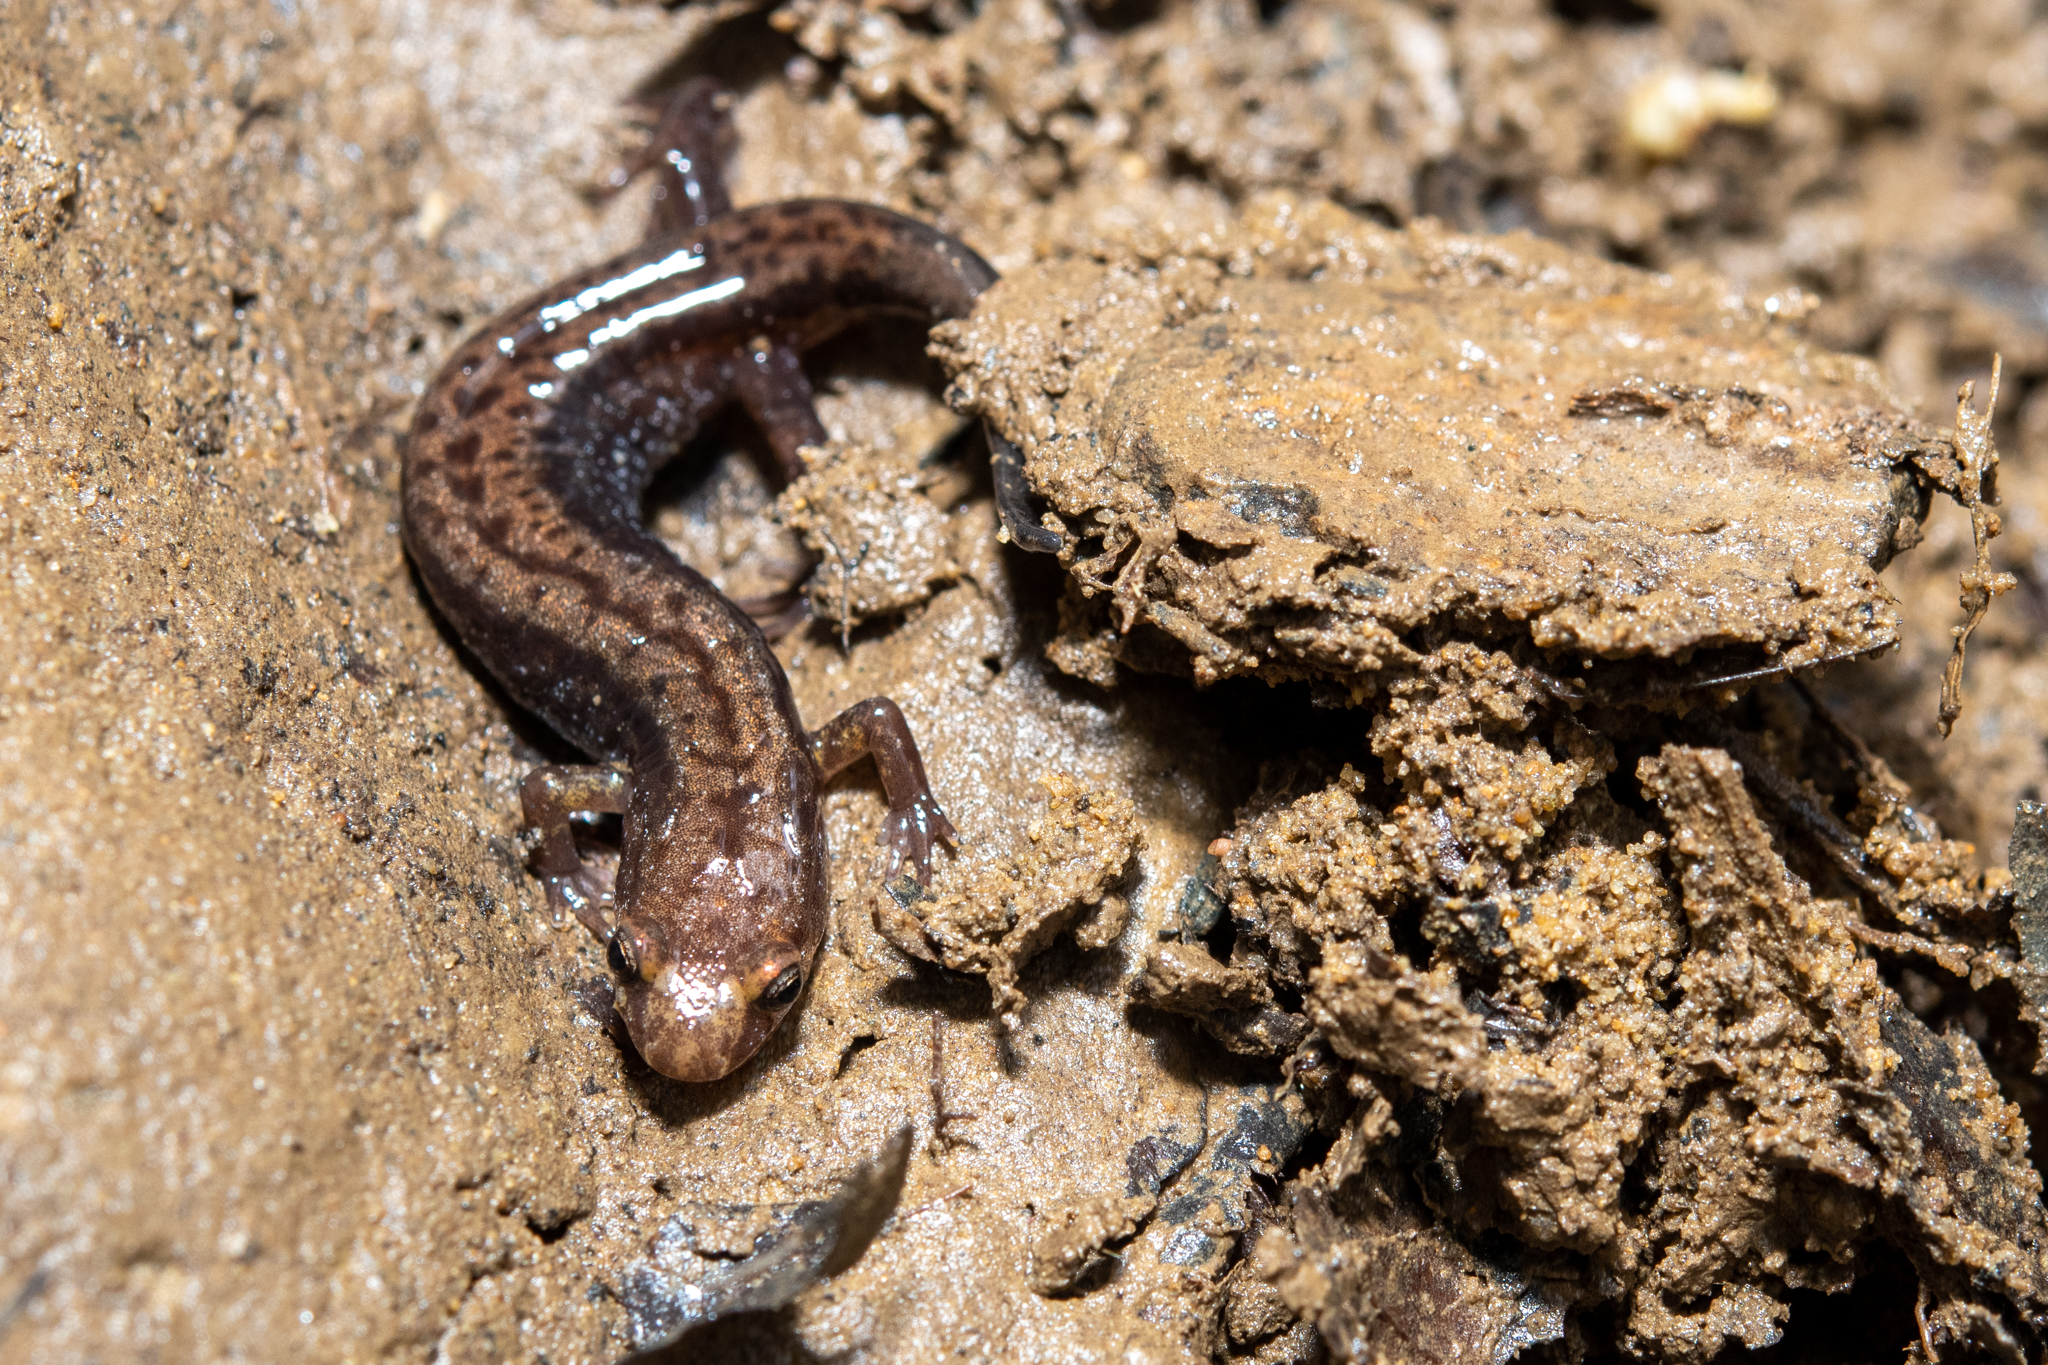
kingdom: Animalia
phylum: Chordata
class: Amphibia
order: Caudata
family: Plethodontidae
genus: Desmognathus
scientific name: Desmognathus ochrophaeus
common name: Allegheny mountain dusky salamander
